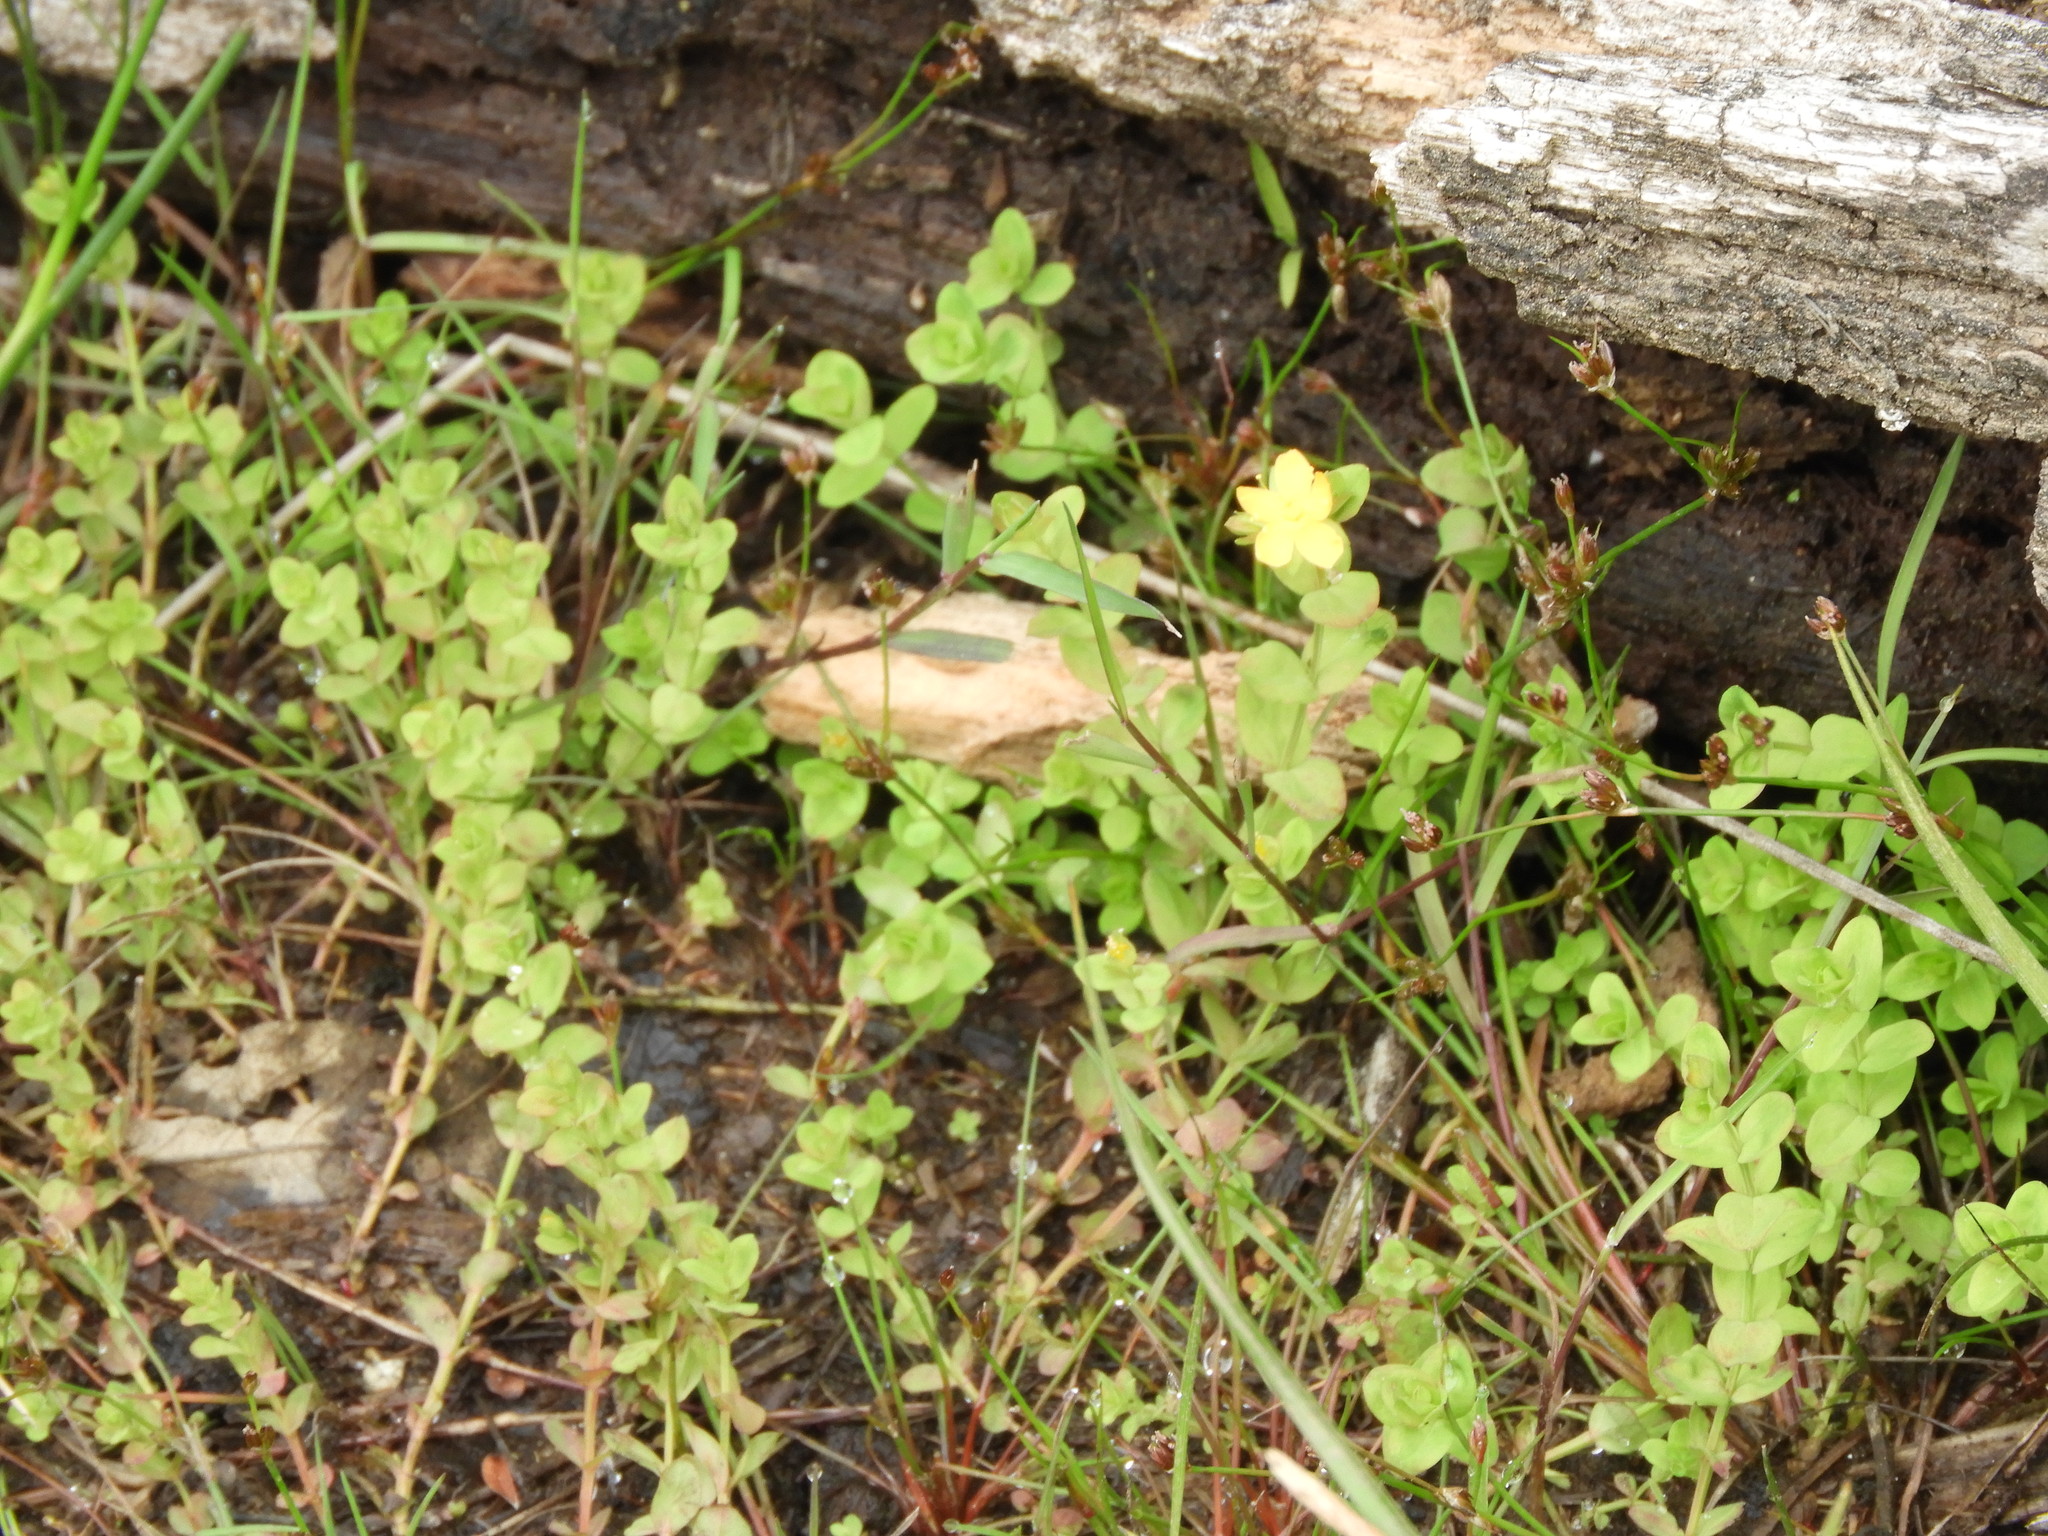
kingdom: Plantae
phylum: Tracheophyta
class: Magnoliopsida
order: Malpighiales
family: Hypericaceae
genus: Hypericum
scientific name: Hypericum anagalloides
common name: Bog st. john's-wort
